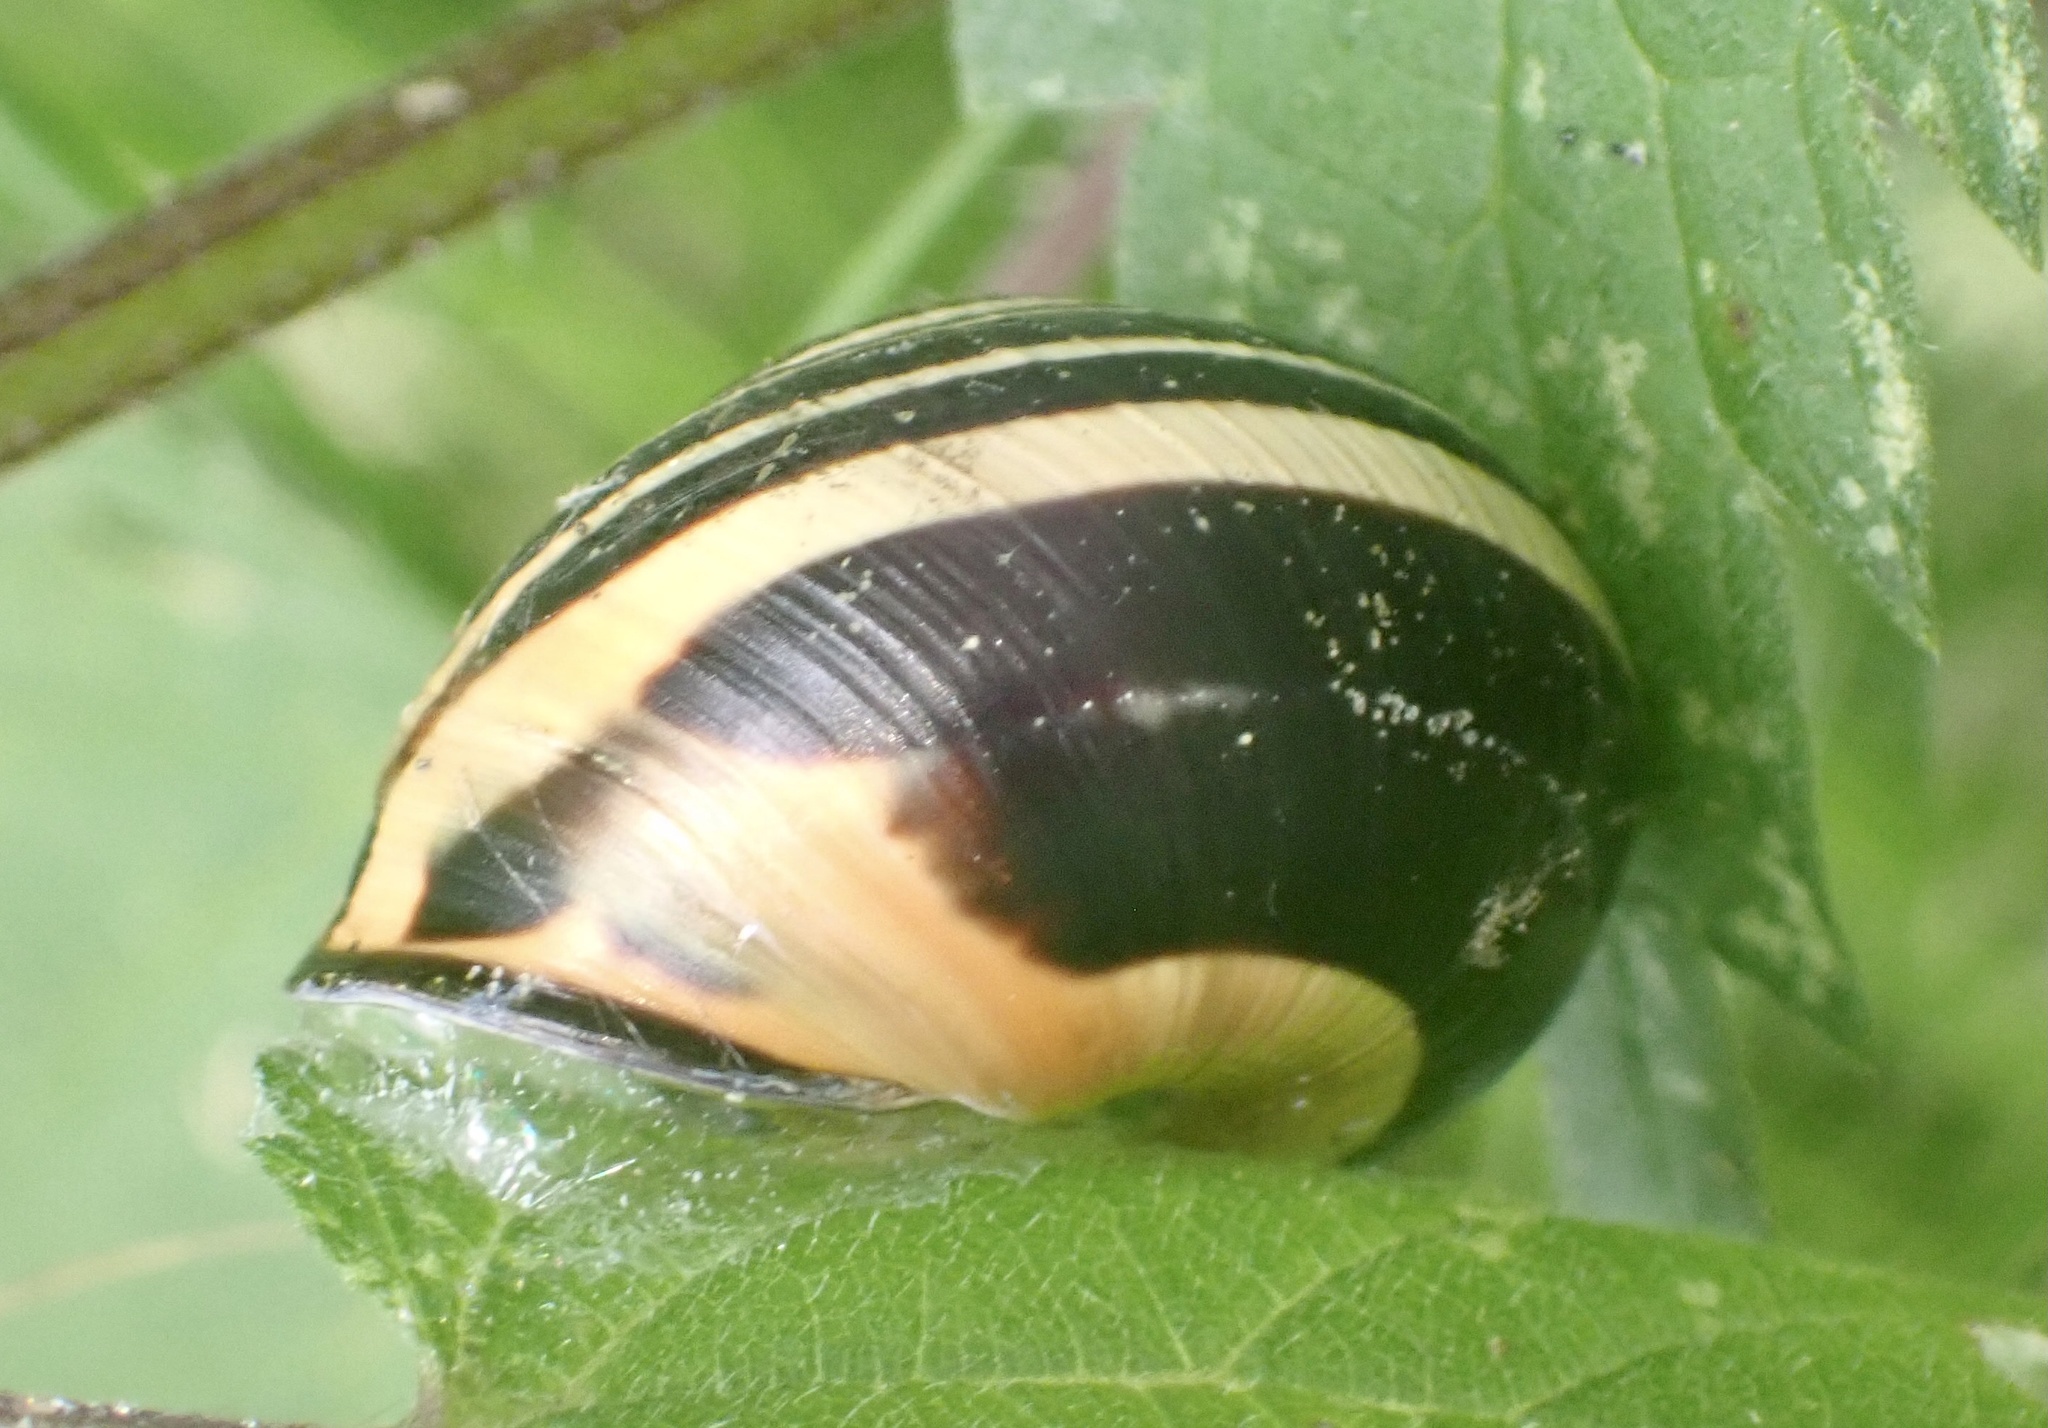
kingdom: Animalia
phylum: Mollusca
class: Gastropoda
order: Stylommatophora
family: Helicidae
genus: Cepaea
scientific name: Cepaea nemoralis
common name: Grovesnail
